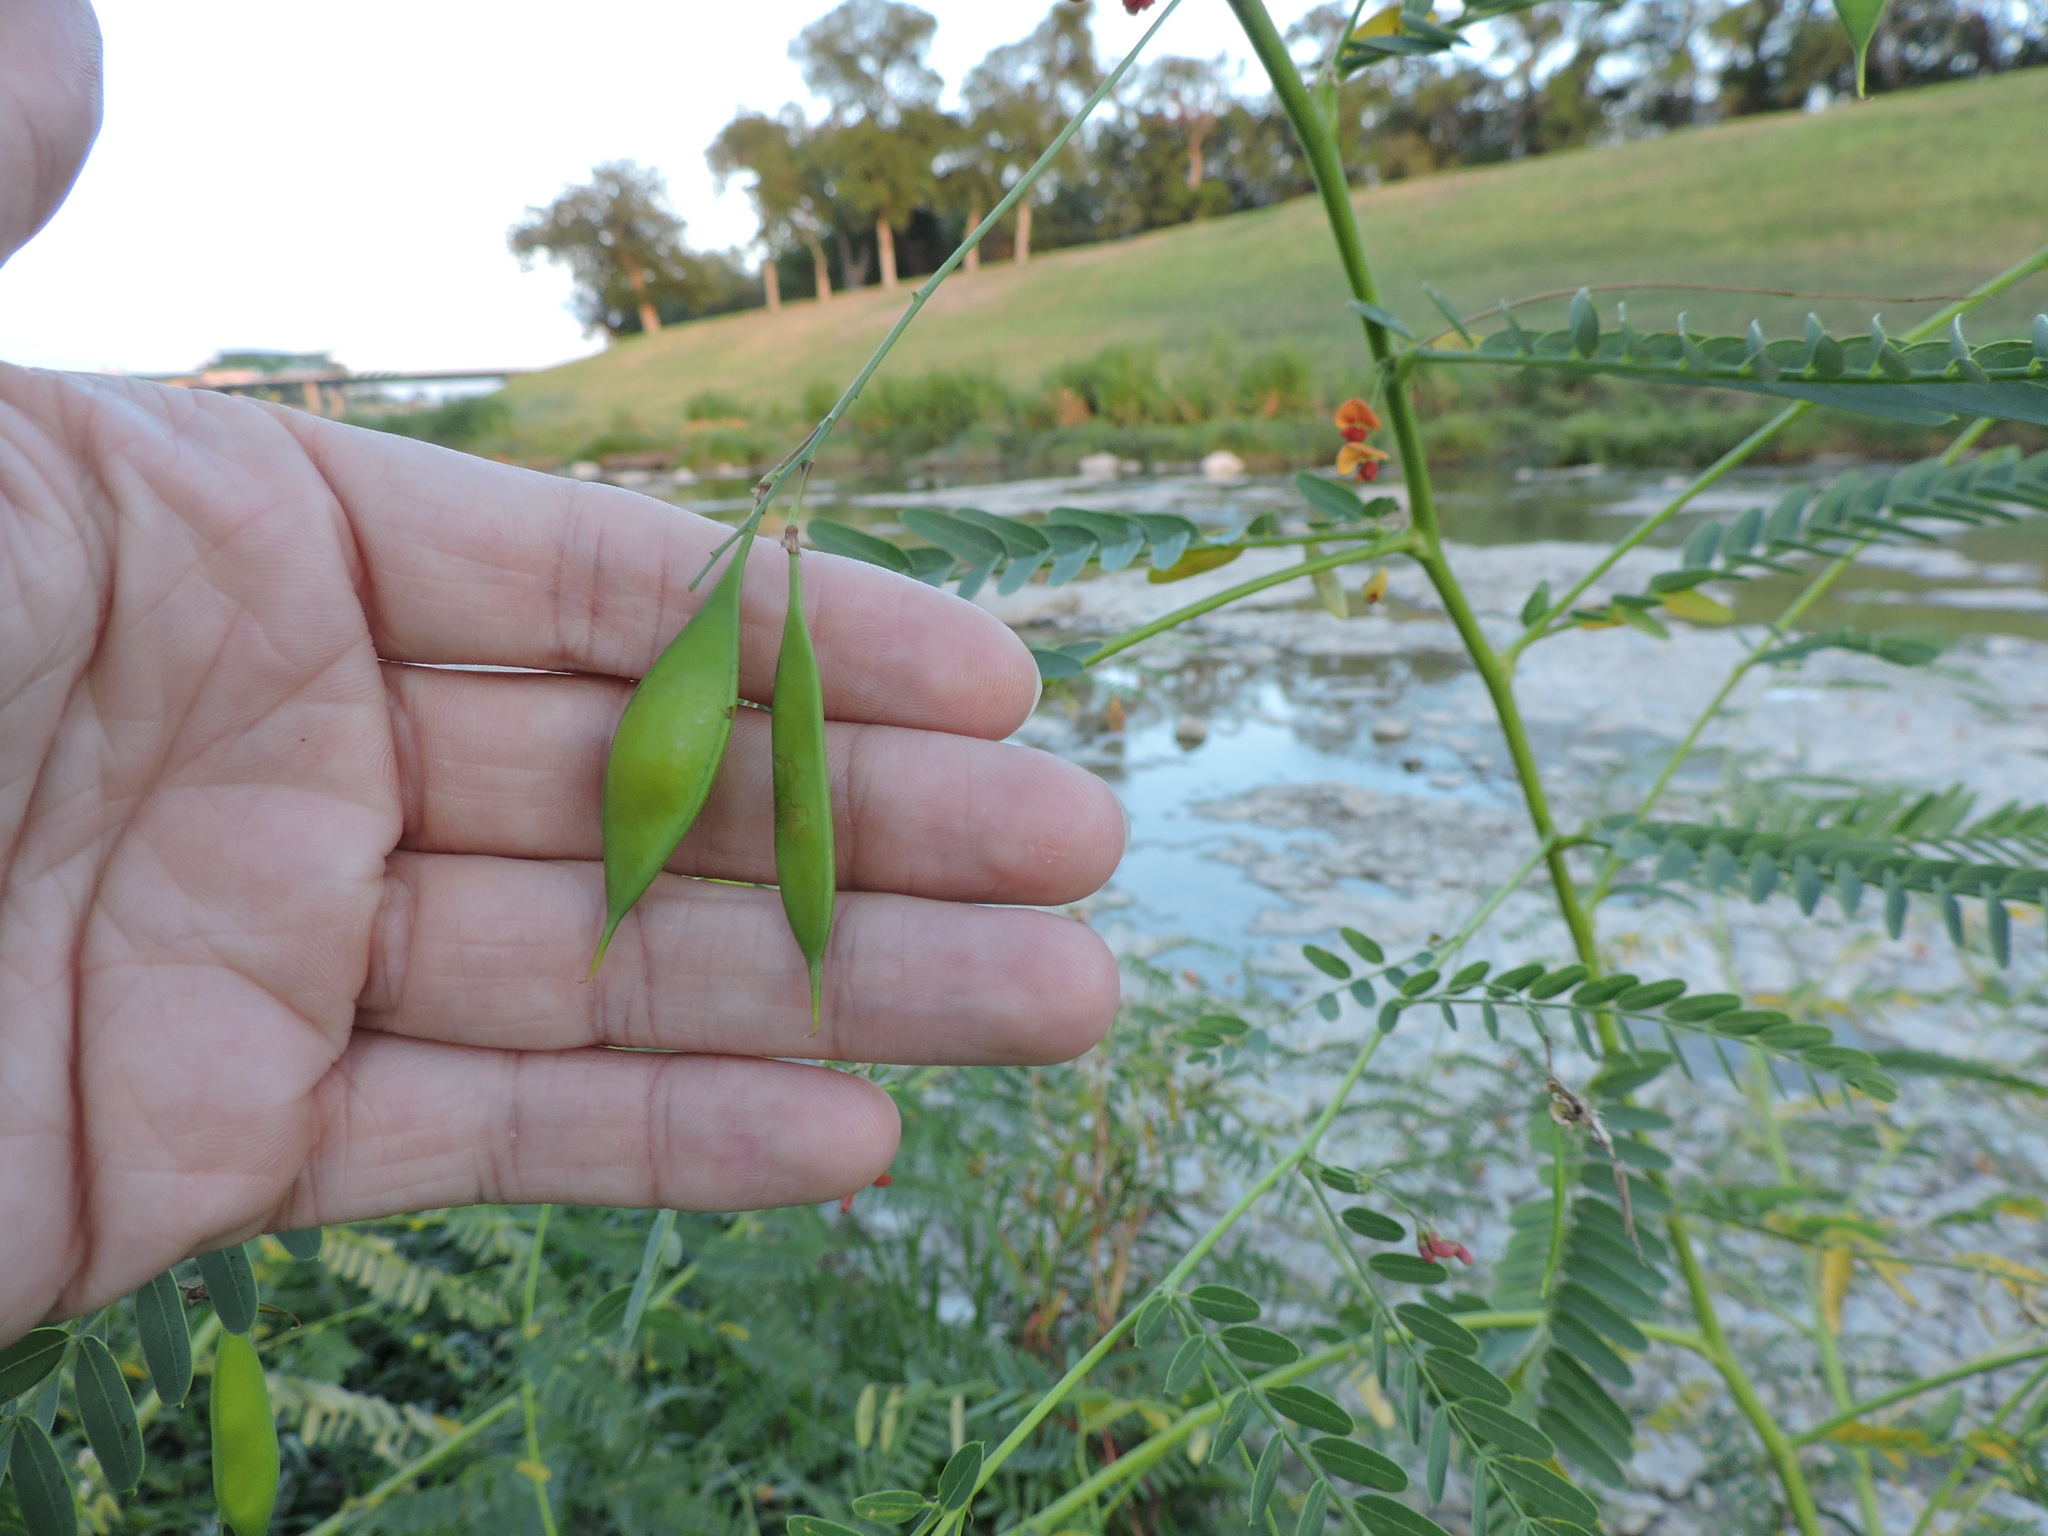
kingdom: Plantae
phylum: Tracheophyta
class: Magnoliopsida
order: Fabales
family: Fabaceae
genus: Sesbania
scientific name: Sesbania vesicaria
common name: Bagpod
